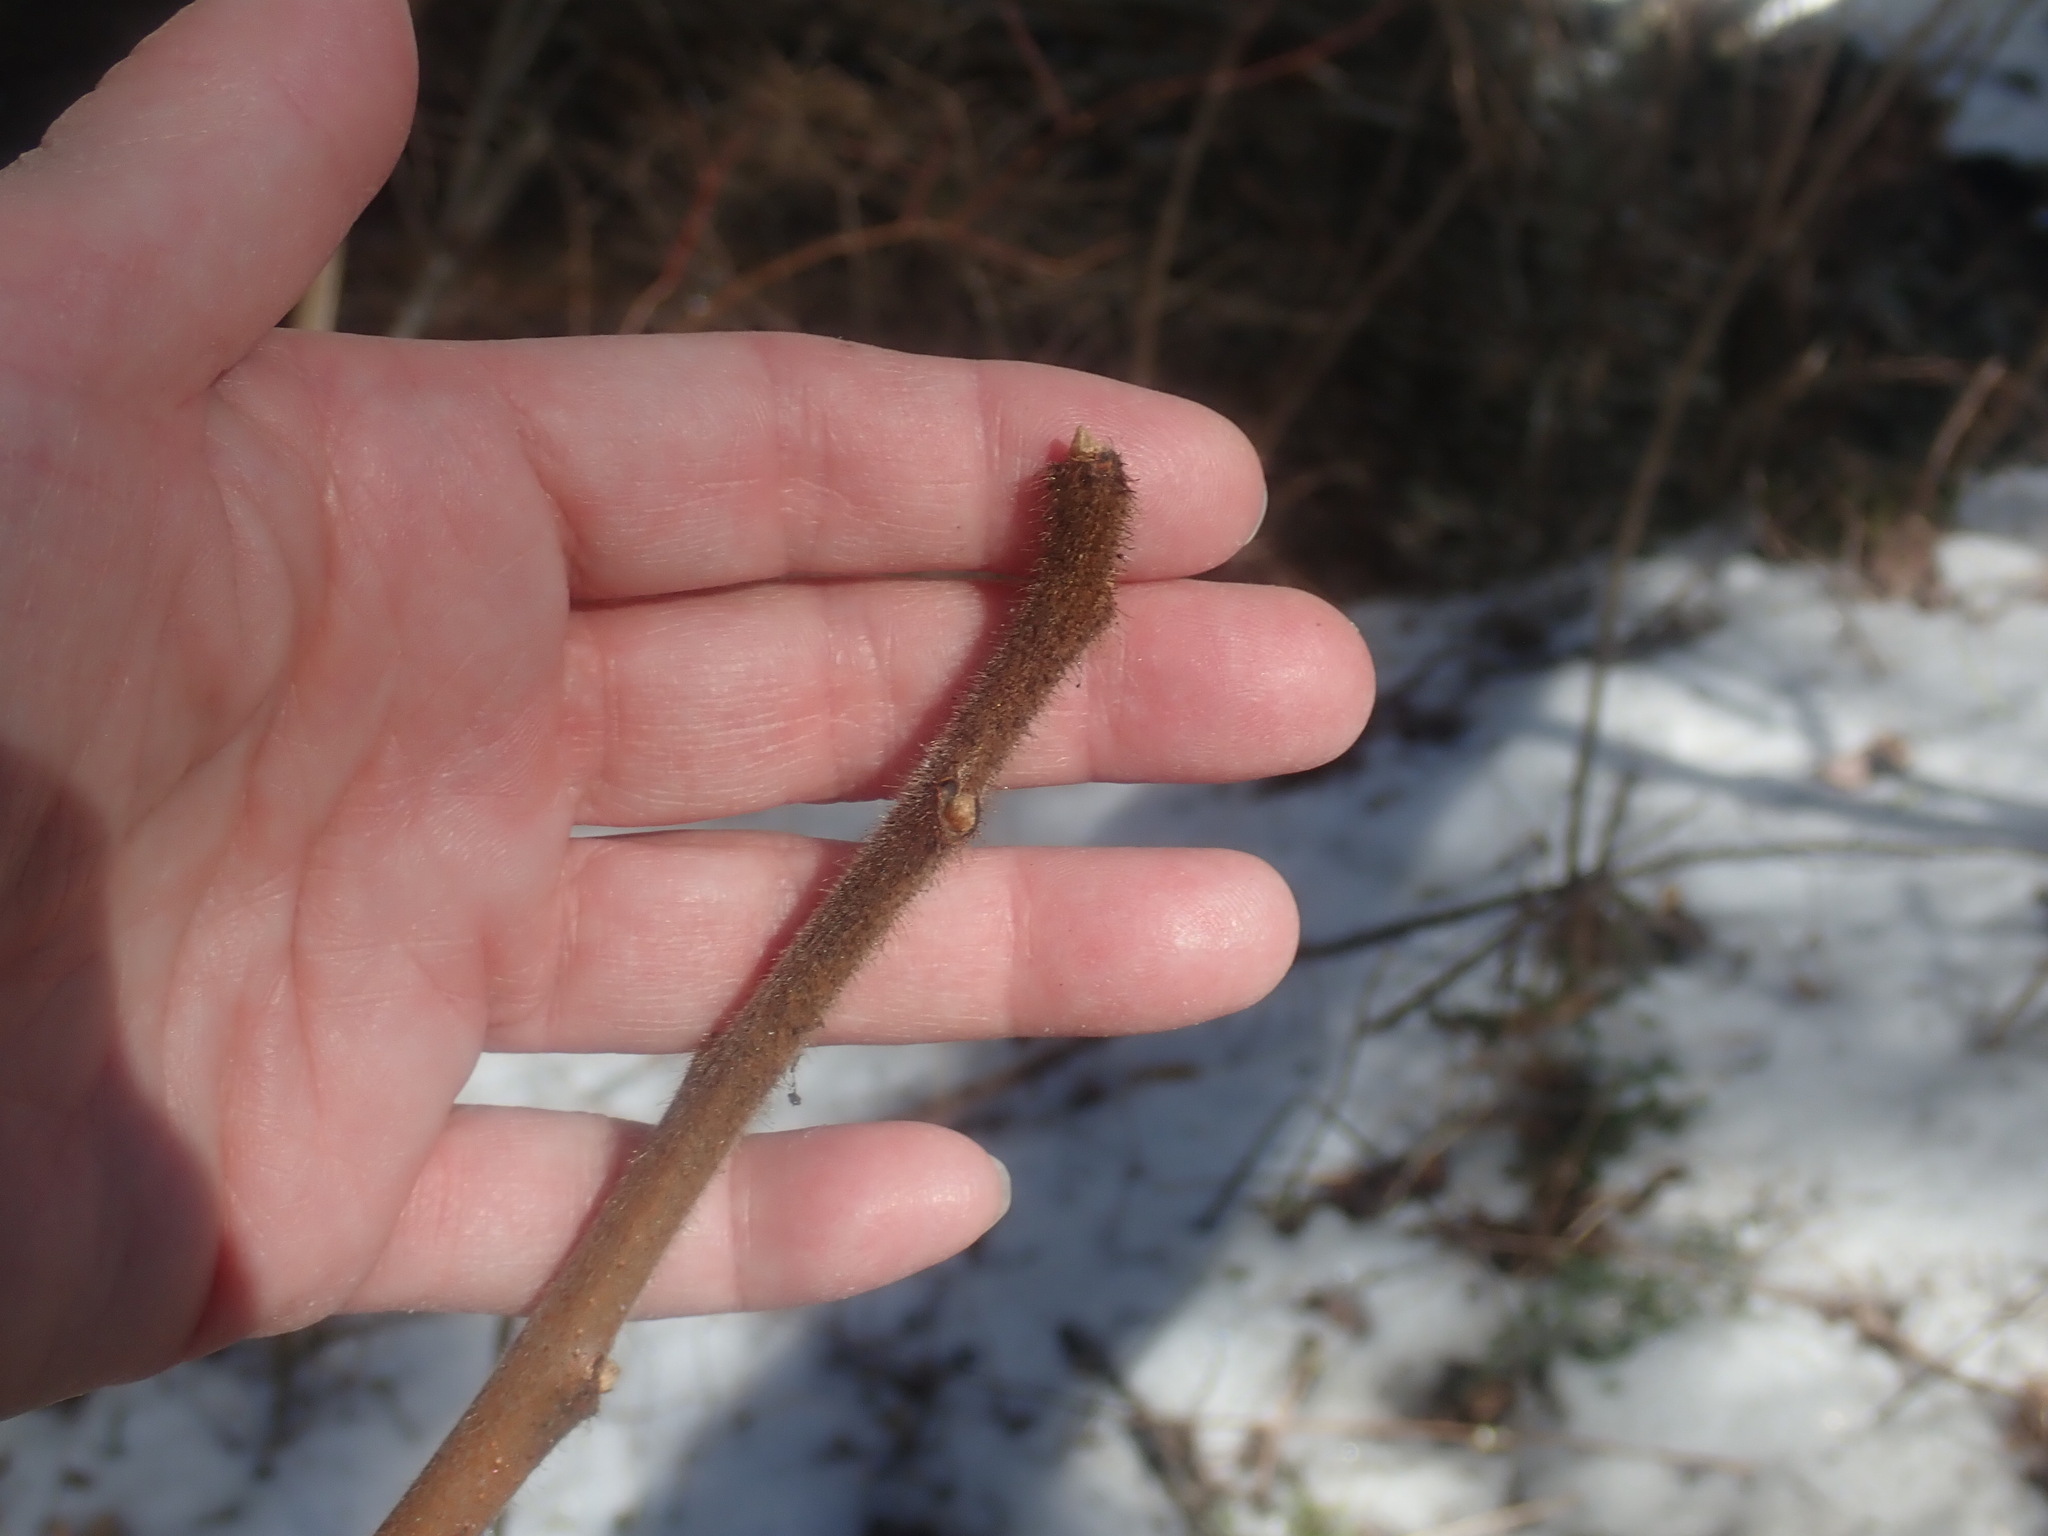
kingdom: Plantae
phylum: Tracheophyta
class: Magnoliopsida
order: Sapindales
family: Anacardiaceae
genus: Rhus
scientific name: Rhus typhina
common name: Staghorn sumac
